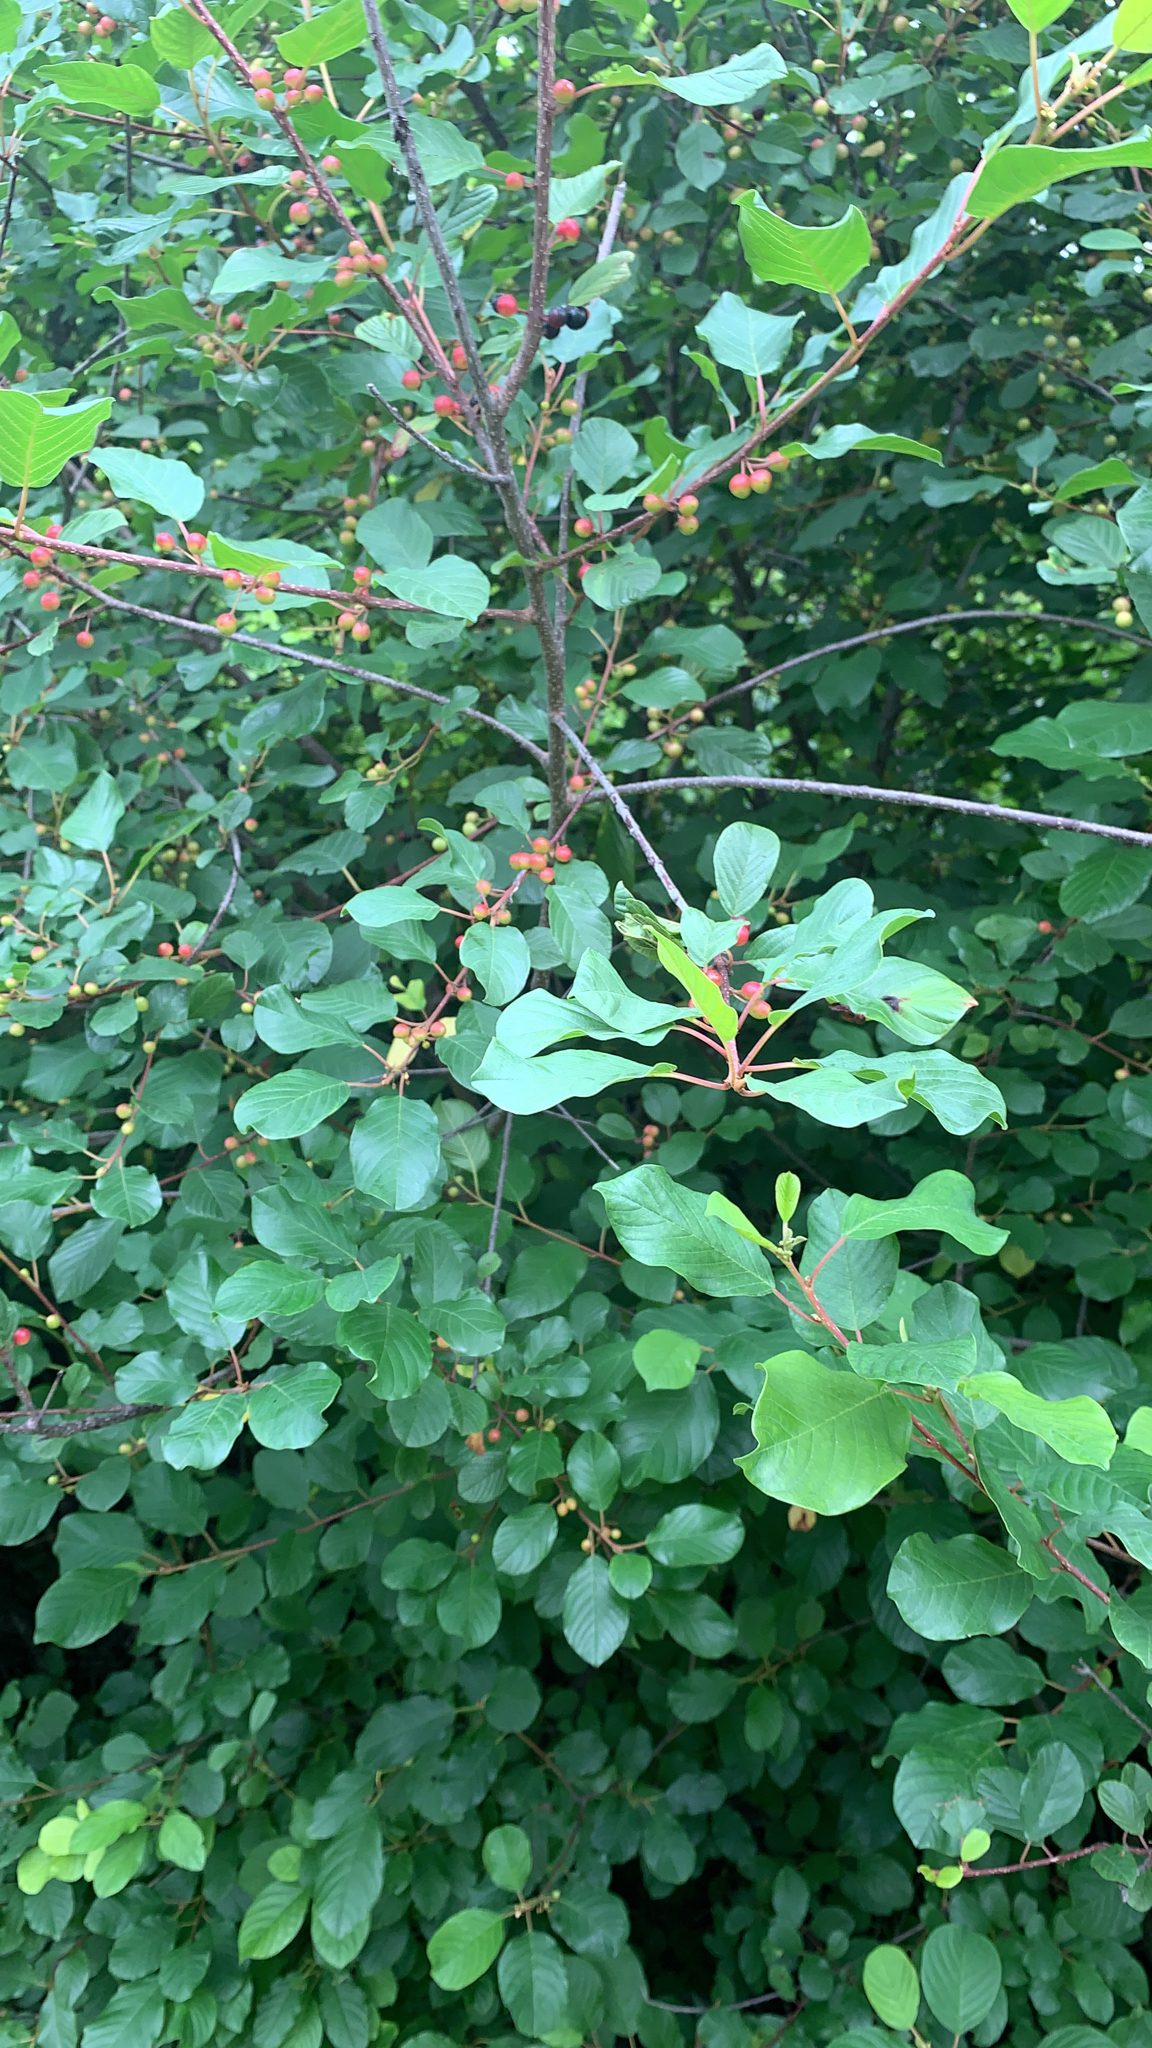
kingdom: Plantae
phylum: Tracheophyta
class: Magnoliopsida
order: Rosales
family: Rhamnaceae
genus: Frangula
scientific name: Frangula alnus
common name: Alder buckthorn
